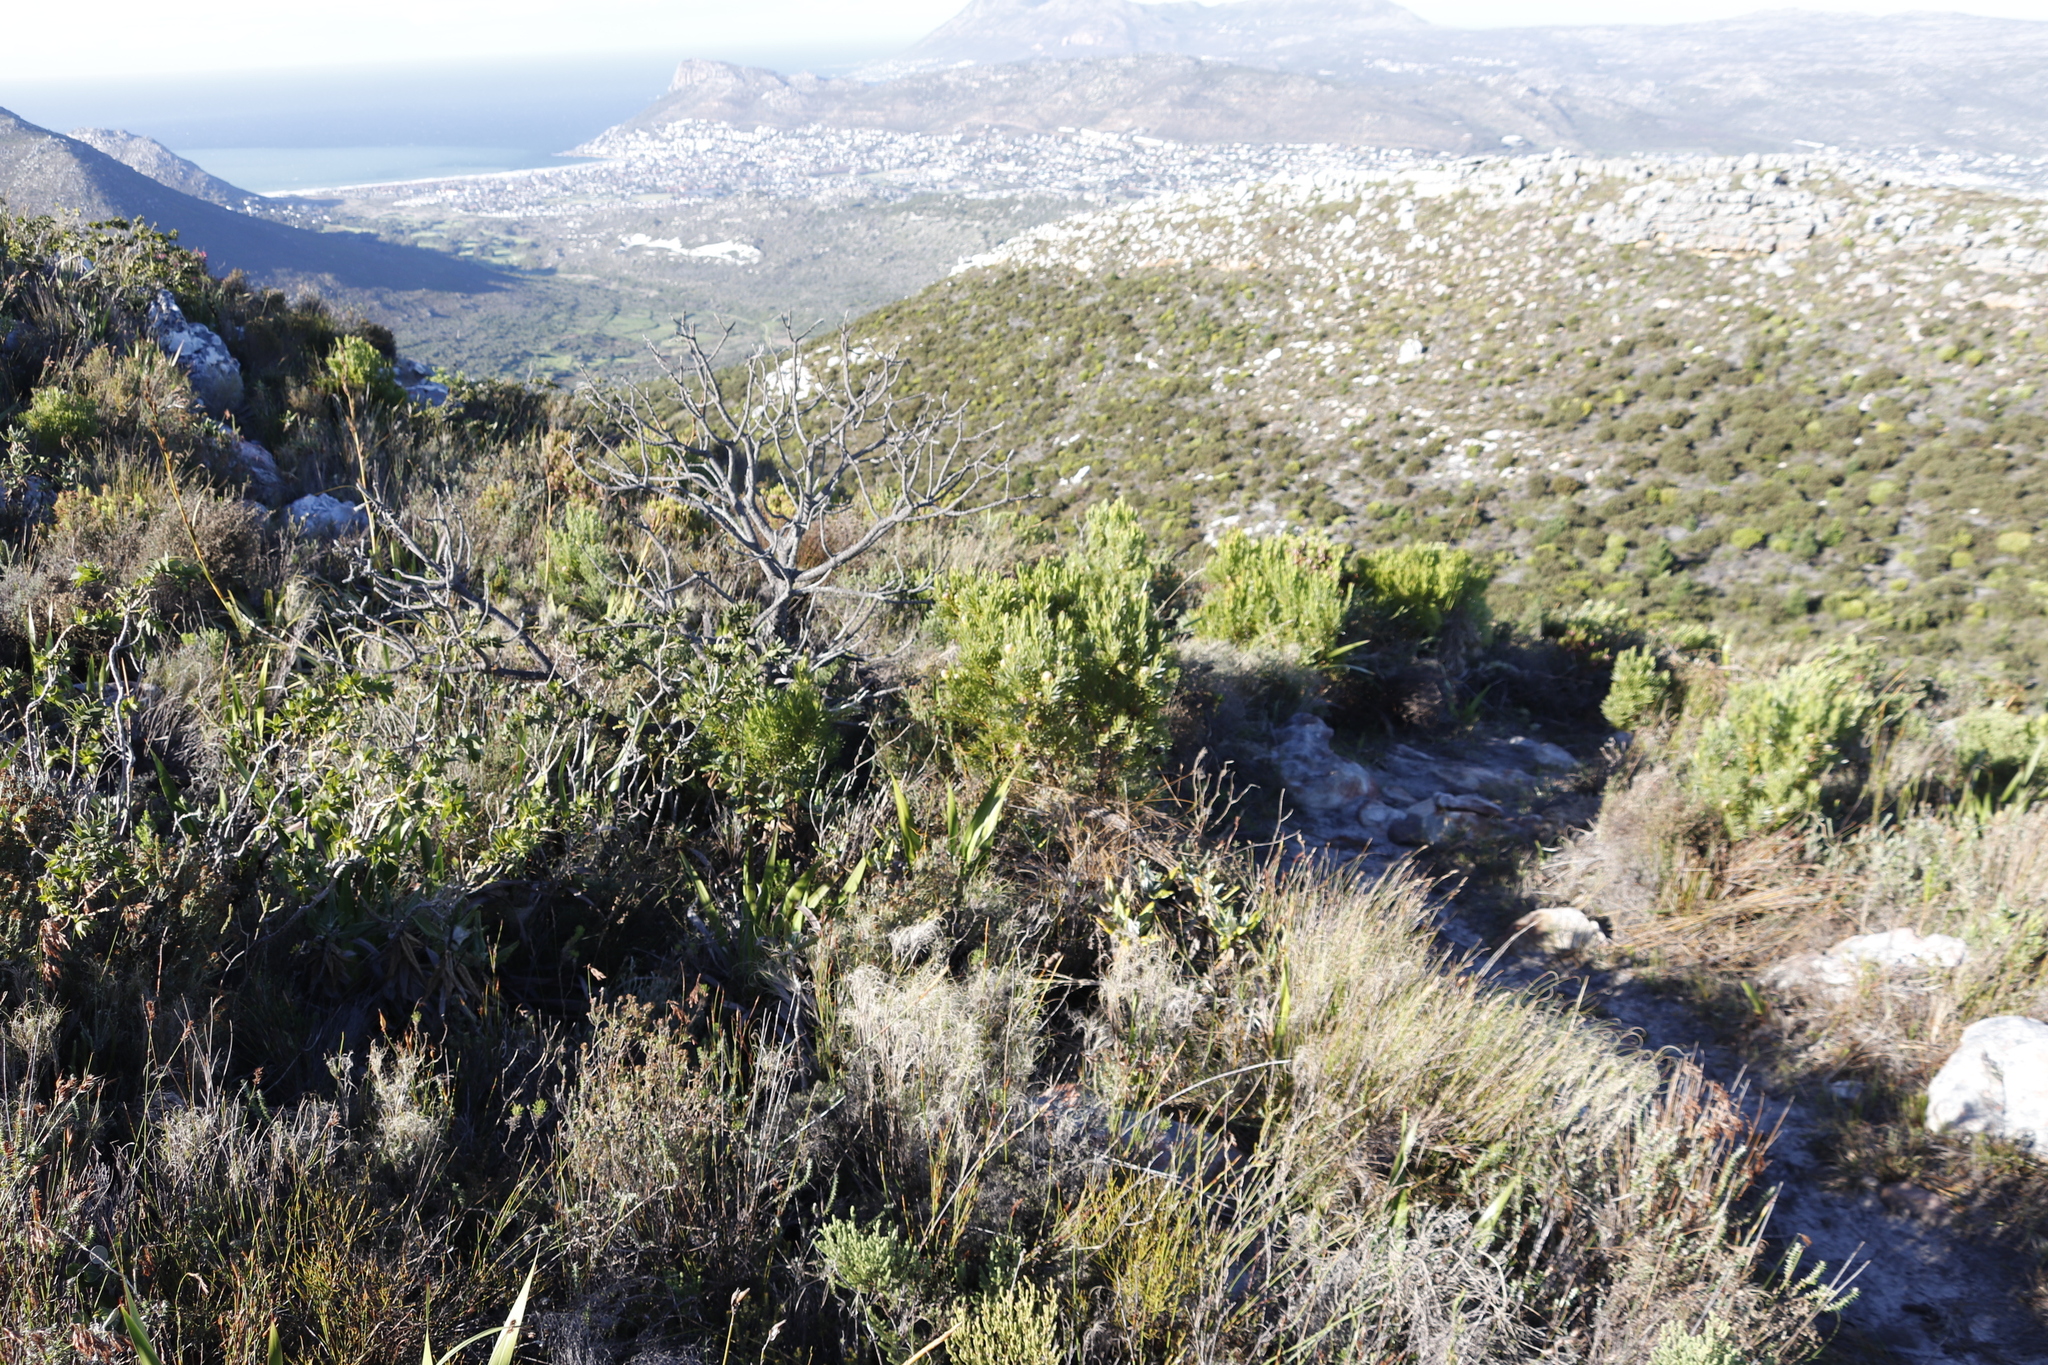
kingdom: Plantae
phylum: Tracheophyta
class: Magnoliopsida
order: Proteales
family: Proteaceae
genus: Leucadendron
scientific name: Leucadendron xanthoconus
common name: Sickle-leaf conebush
